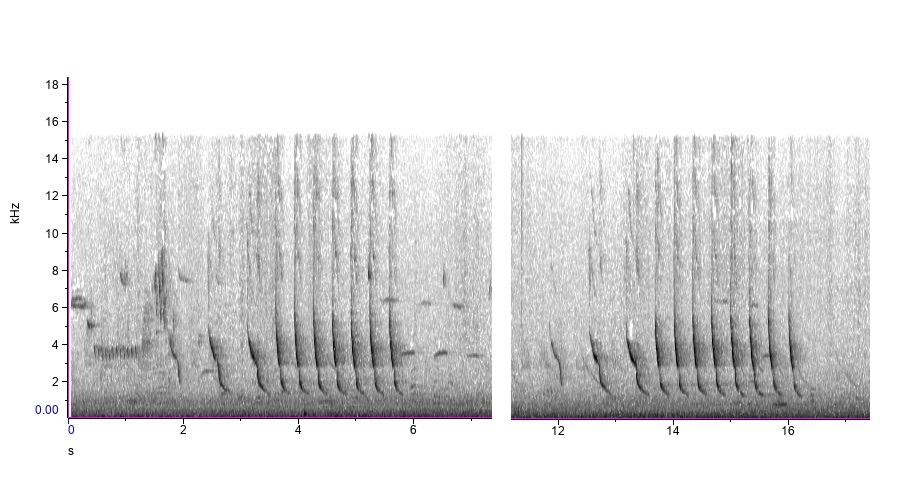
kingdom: Animalia
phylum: Chordata
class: Aves
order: Passeriformes
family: Cardinalidae
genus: Cardinalis
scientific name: Cardinalis cardinalis
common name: Northern cardinal
